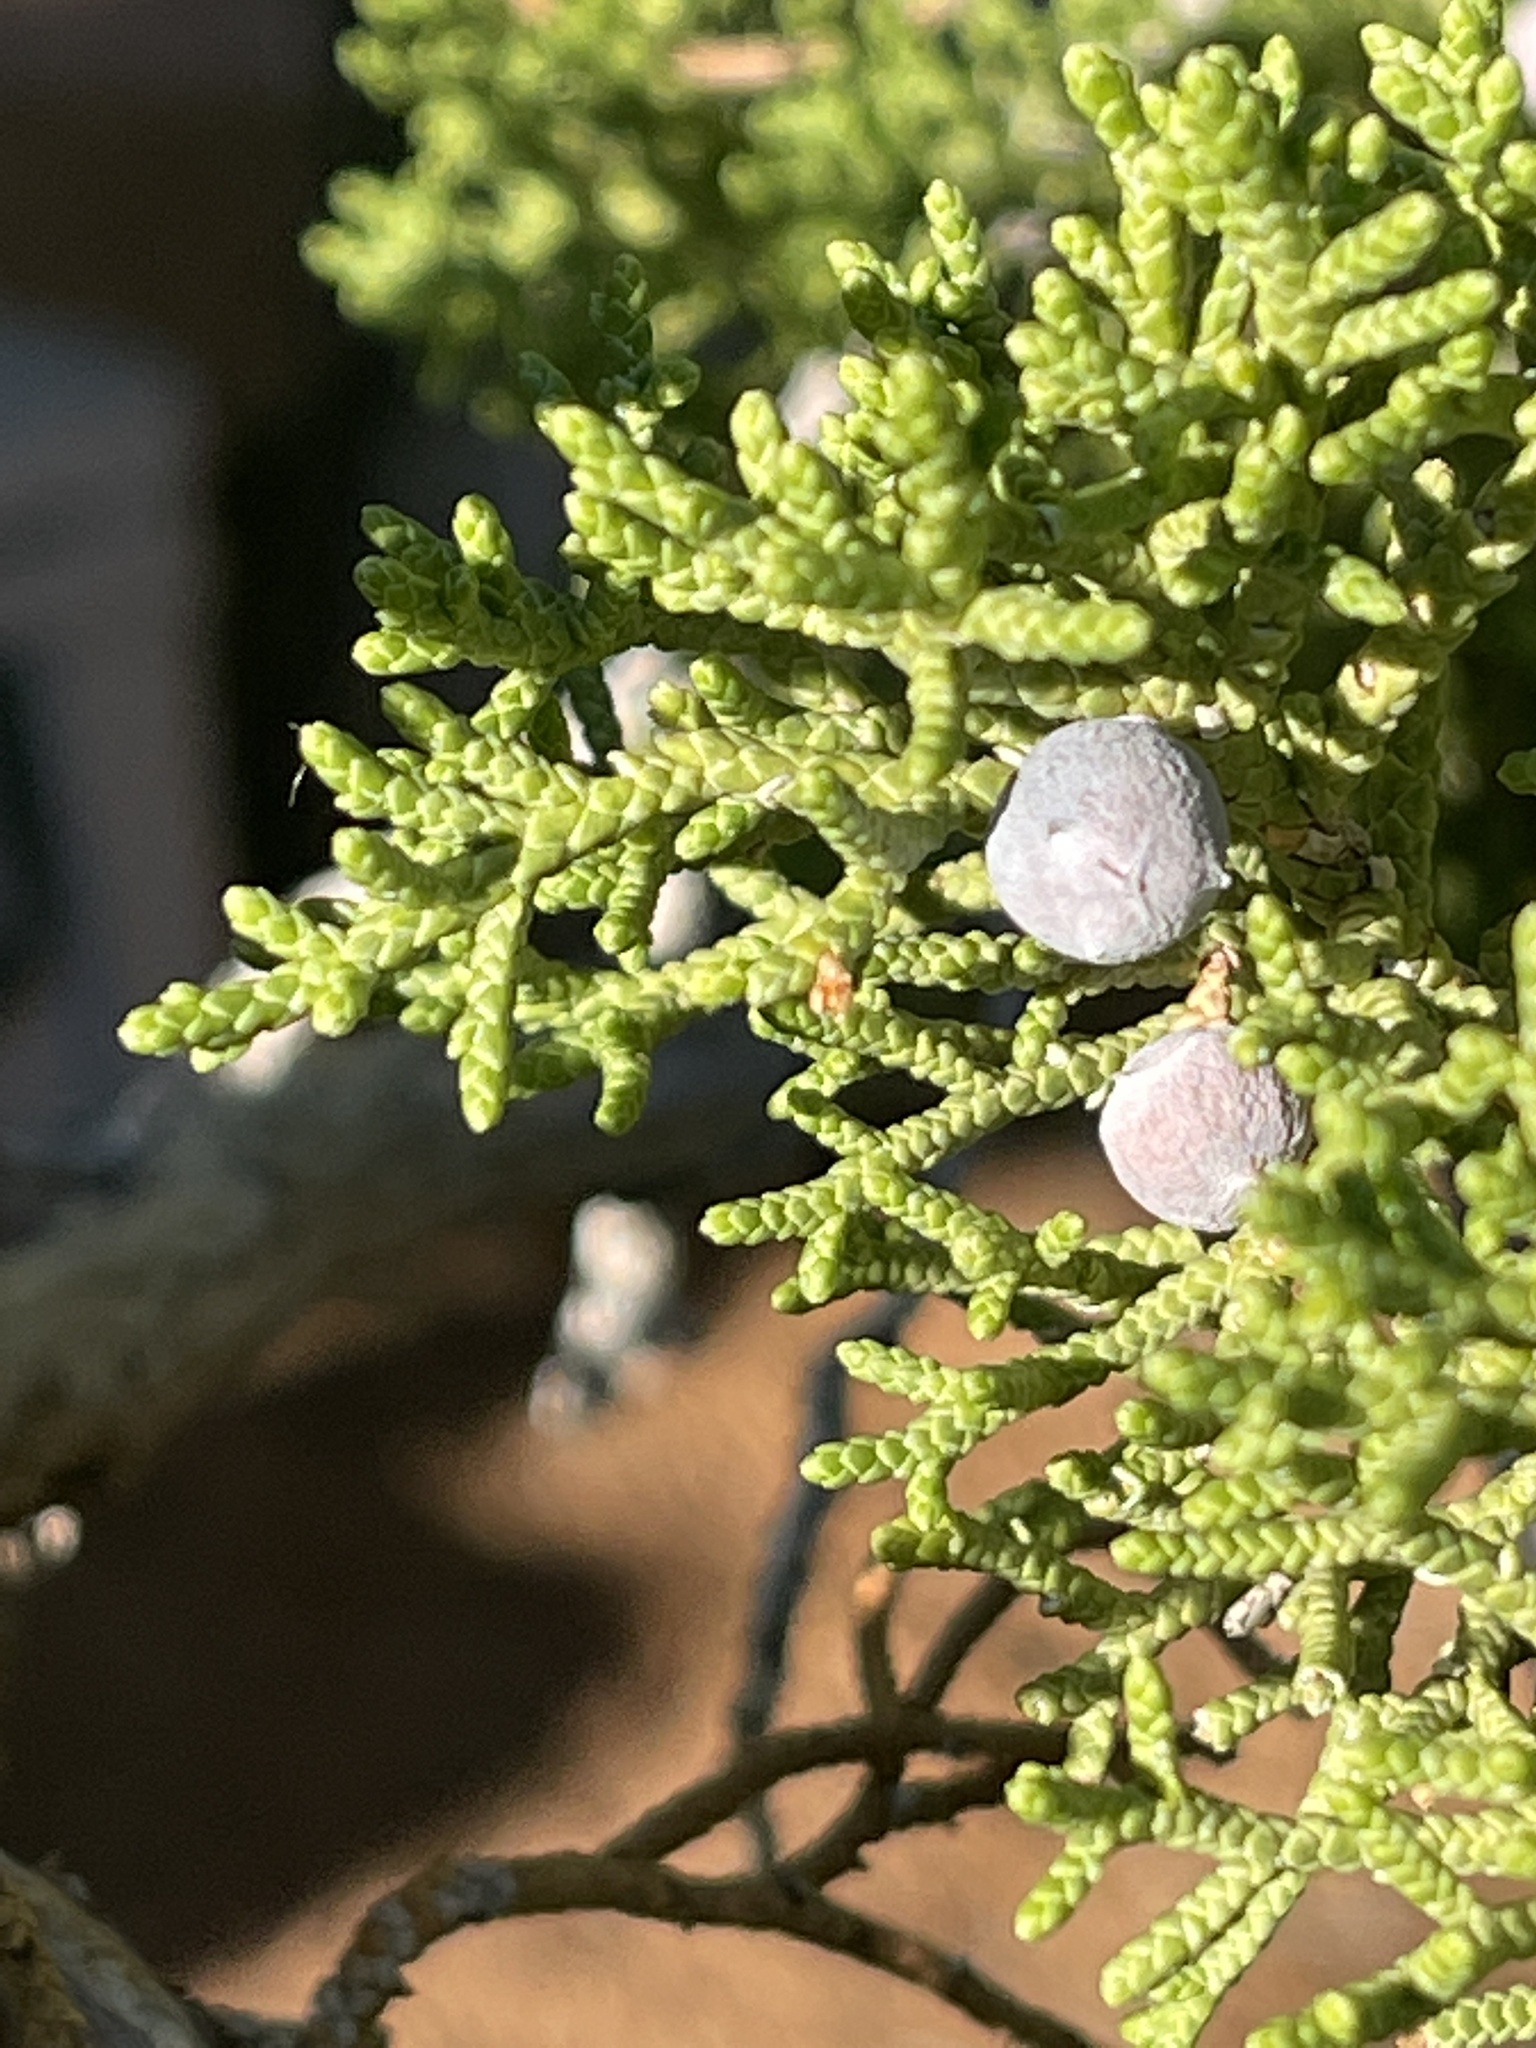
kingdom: Plantae
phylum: Tracheophyta
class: Pinopsida
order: Pinales
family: Cupressaceae
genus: Juniperus
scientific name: Juniperus osteosperma
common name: Utah juniper
